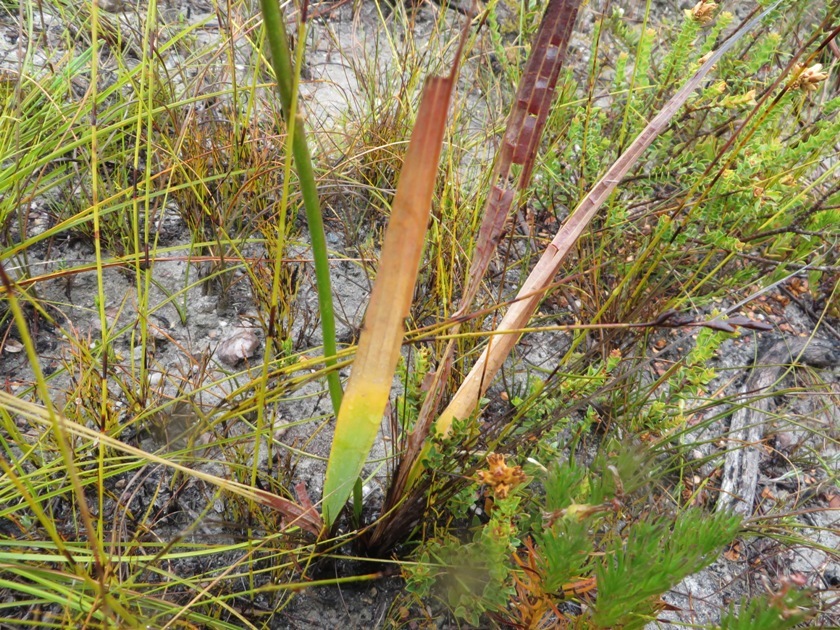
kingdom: Plantae
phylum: Tracheophyta
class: Liliopsida
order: Asparagales
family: Iridaceae
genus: Tritoniopsis
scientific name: Tritoniopsis antholyza
